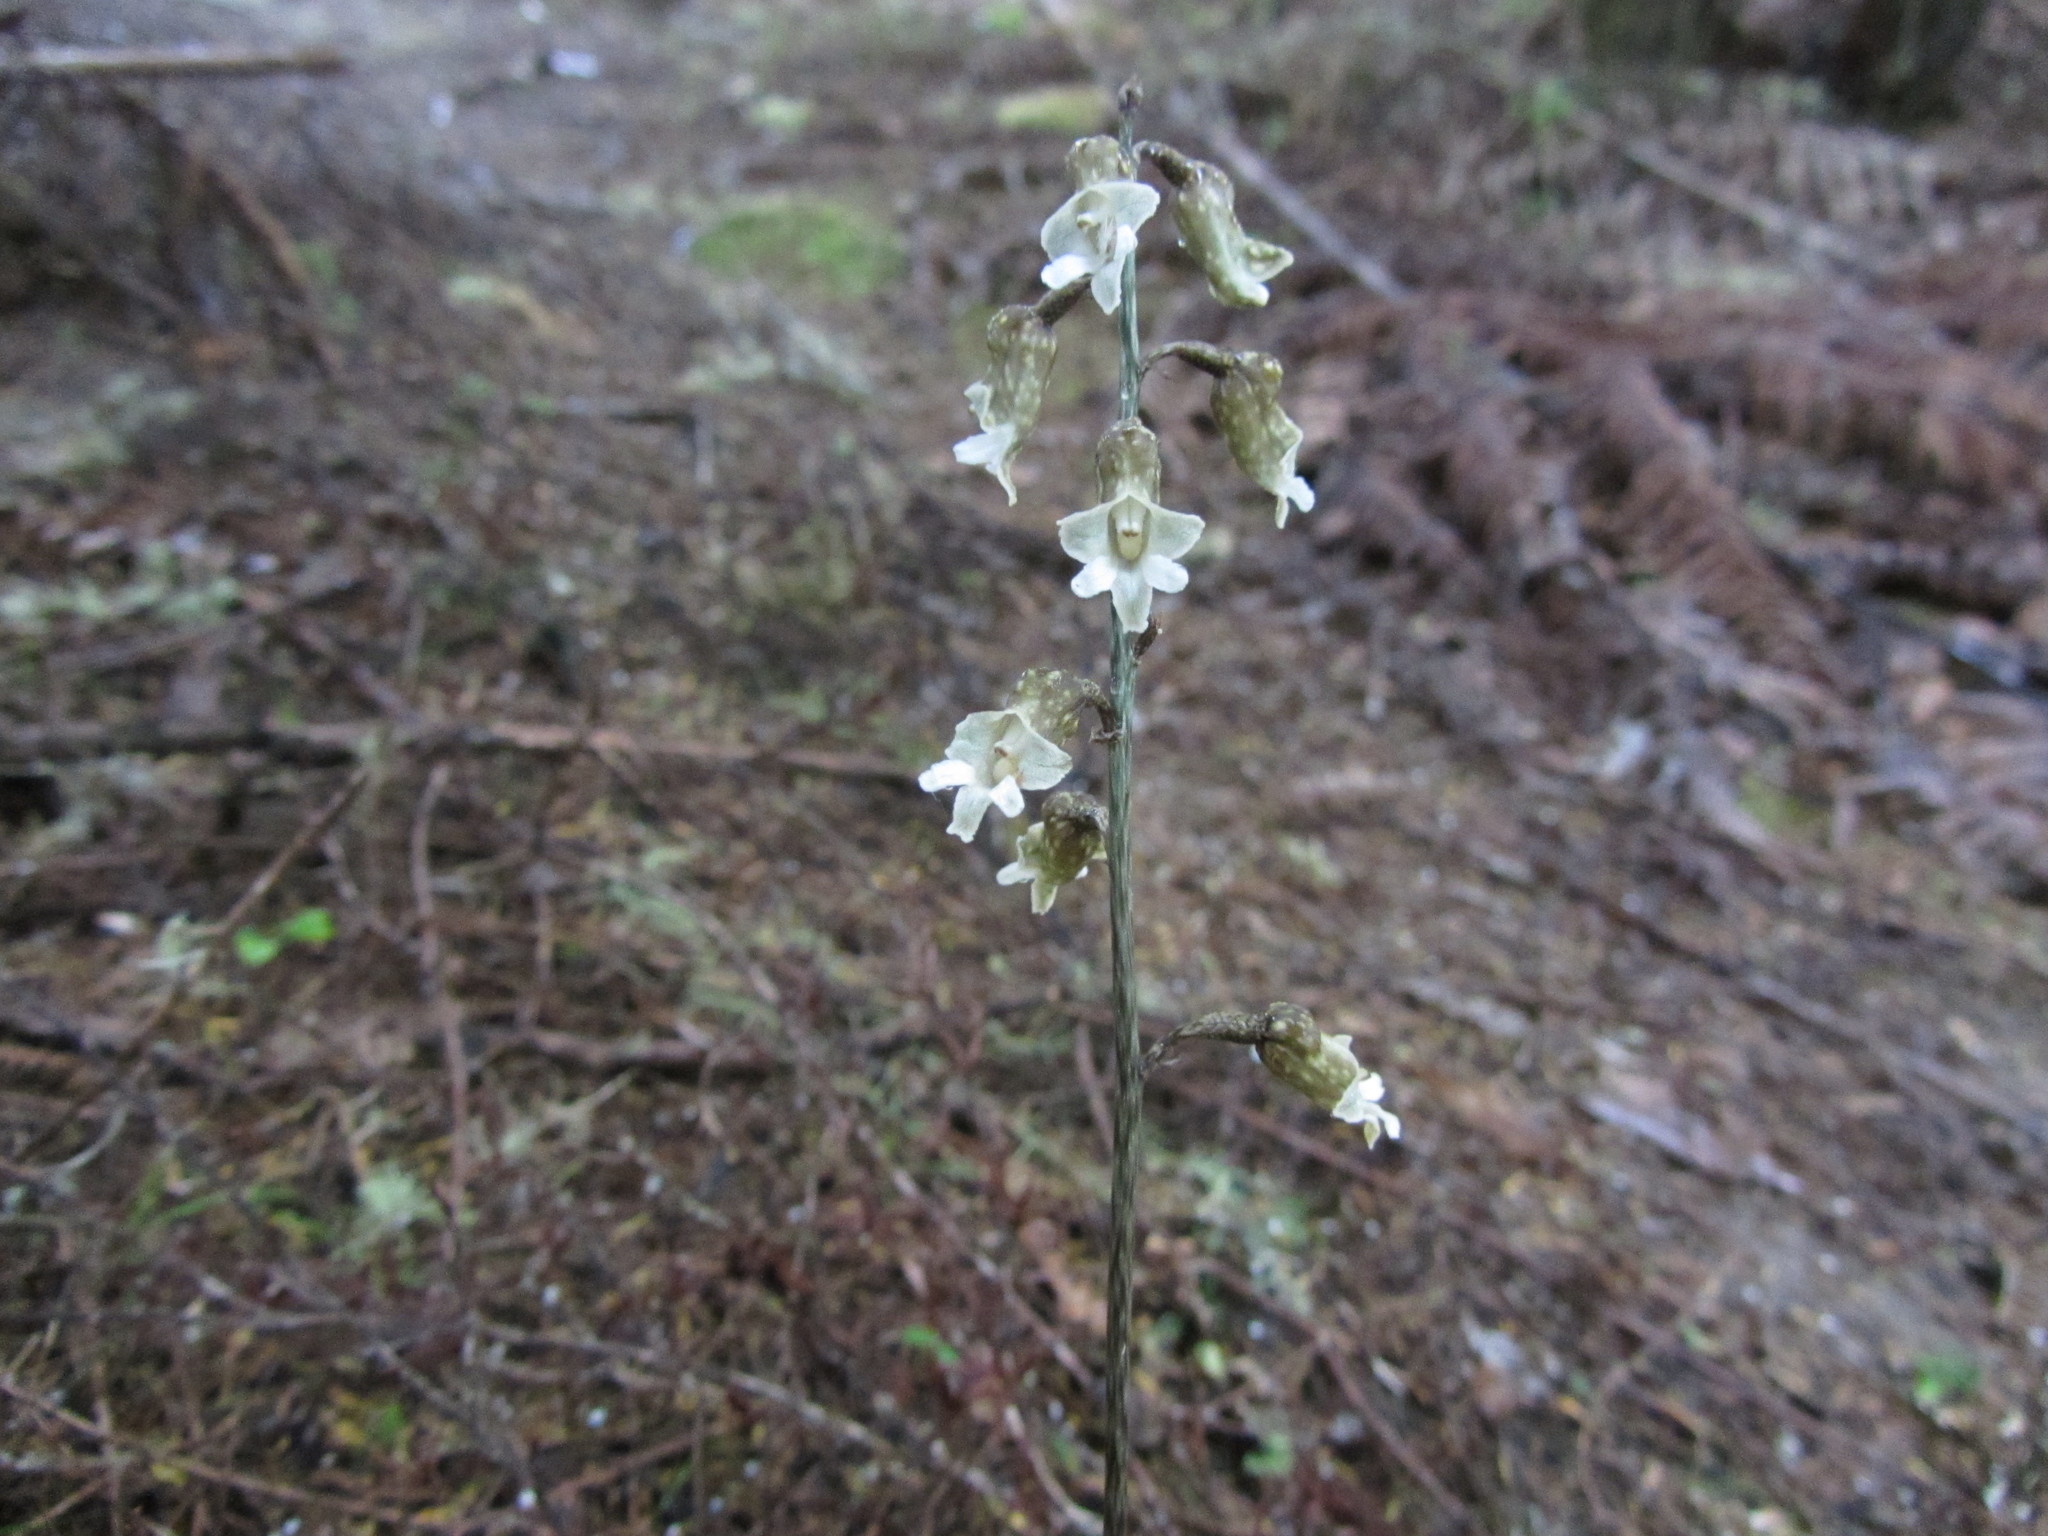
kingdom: Plantae
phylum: Tracheophyta
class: Liliopsida
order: Asparagales
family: Orchidaceae
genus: Gastrodia
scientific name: Gastrodia cooperae
